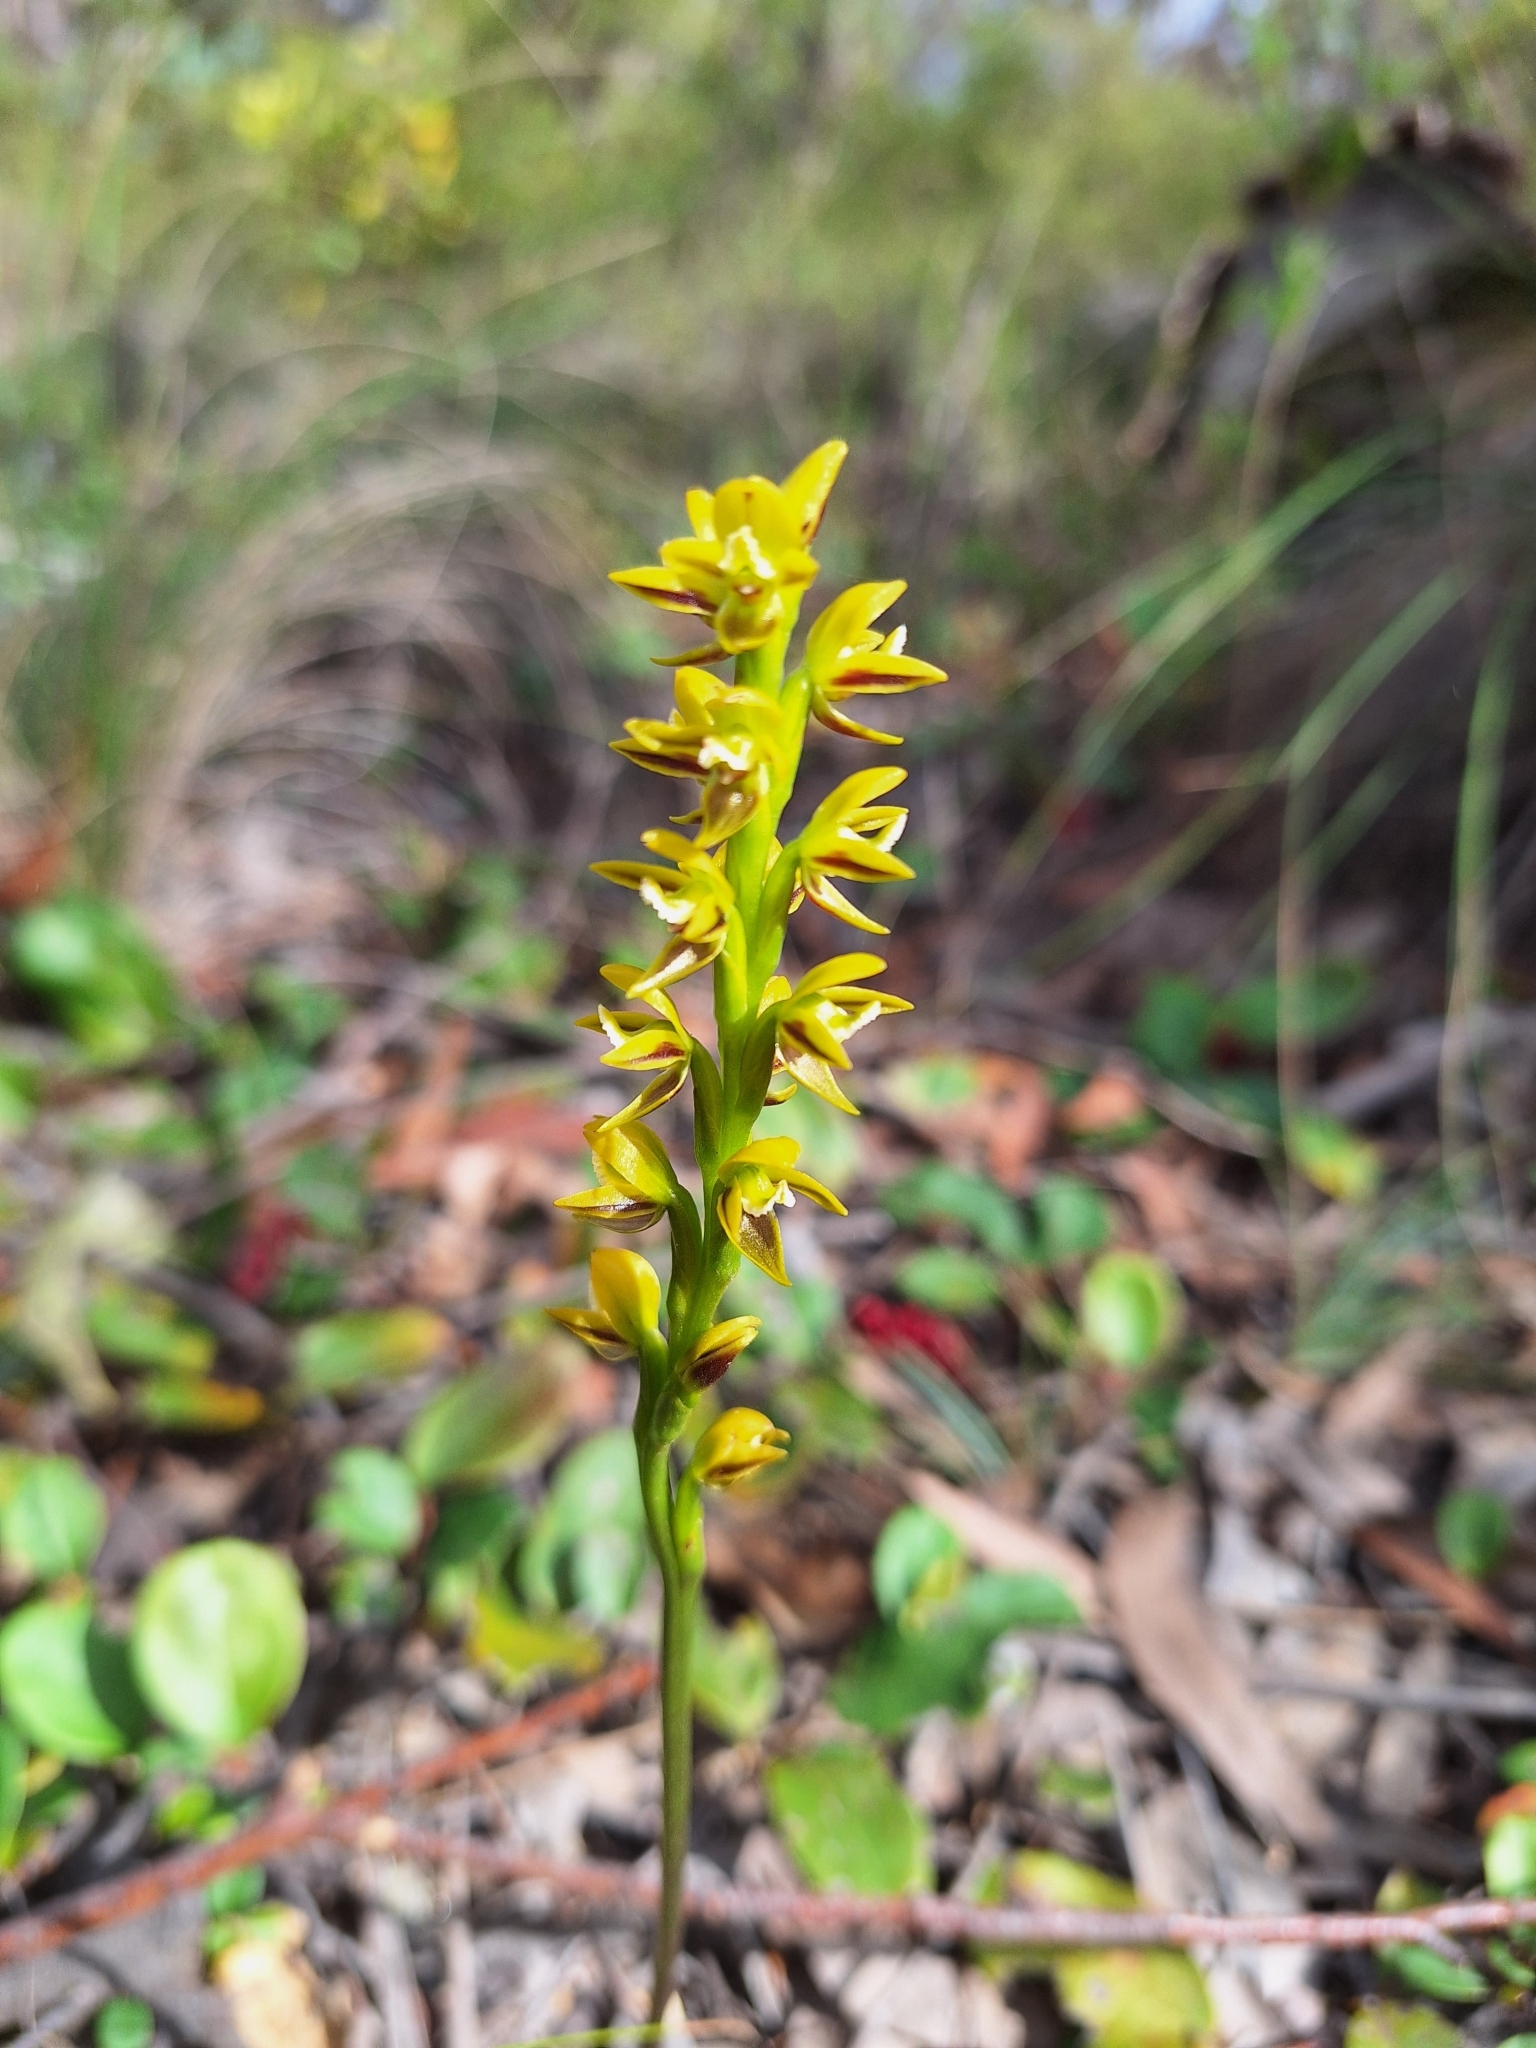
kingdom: Plantae
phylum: Tracheophyta
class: Liliopsida
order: Asparagales
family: Orchidaceae
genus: Prasophyllum
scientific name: Prasophyllum flavum
